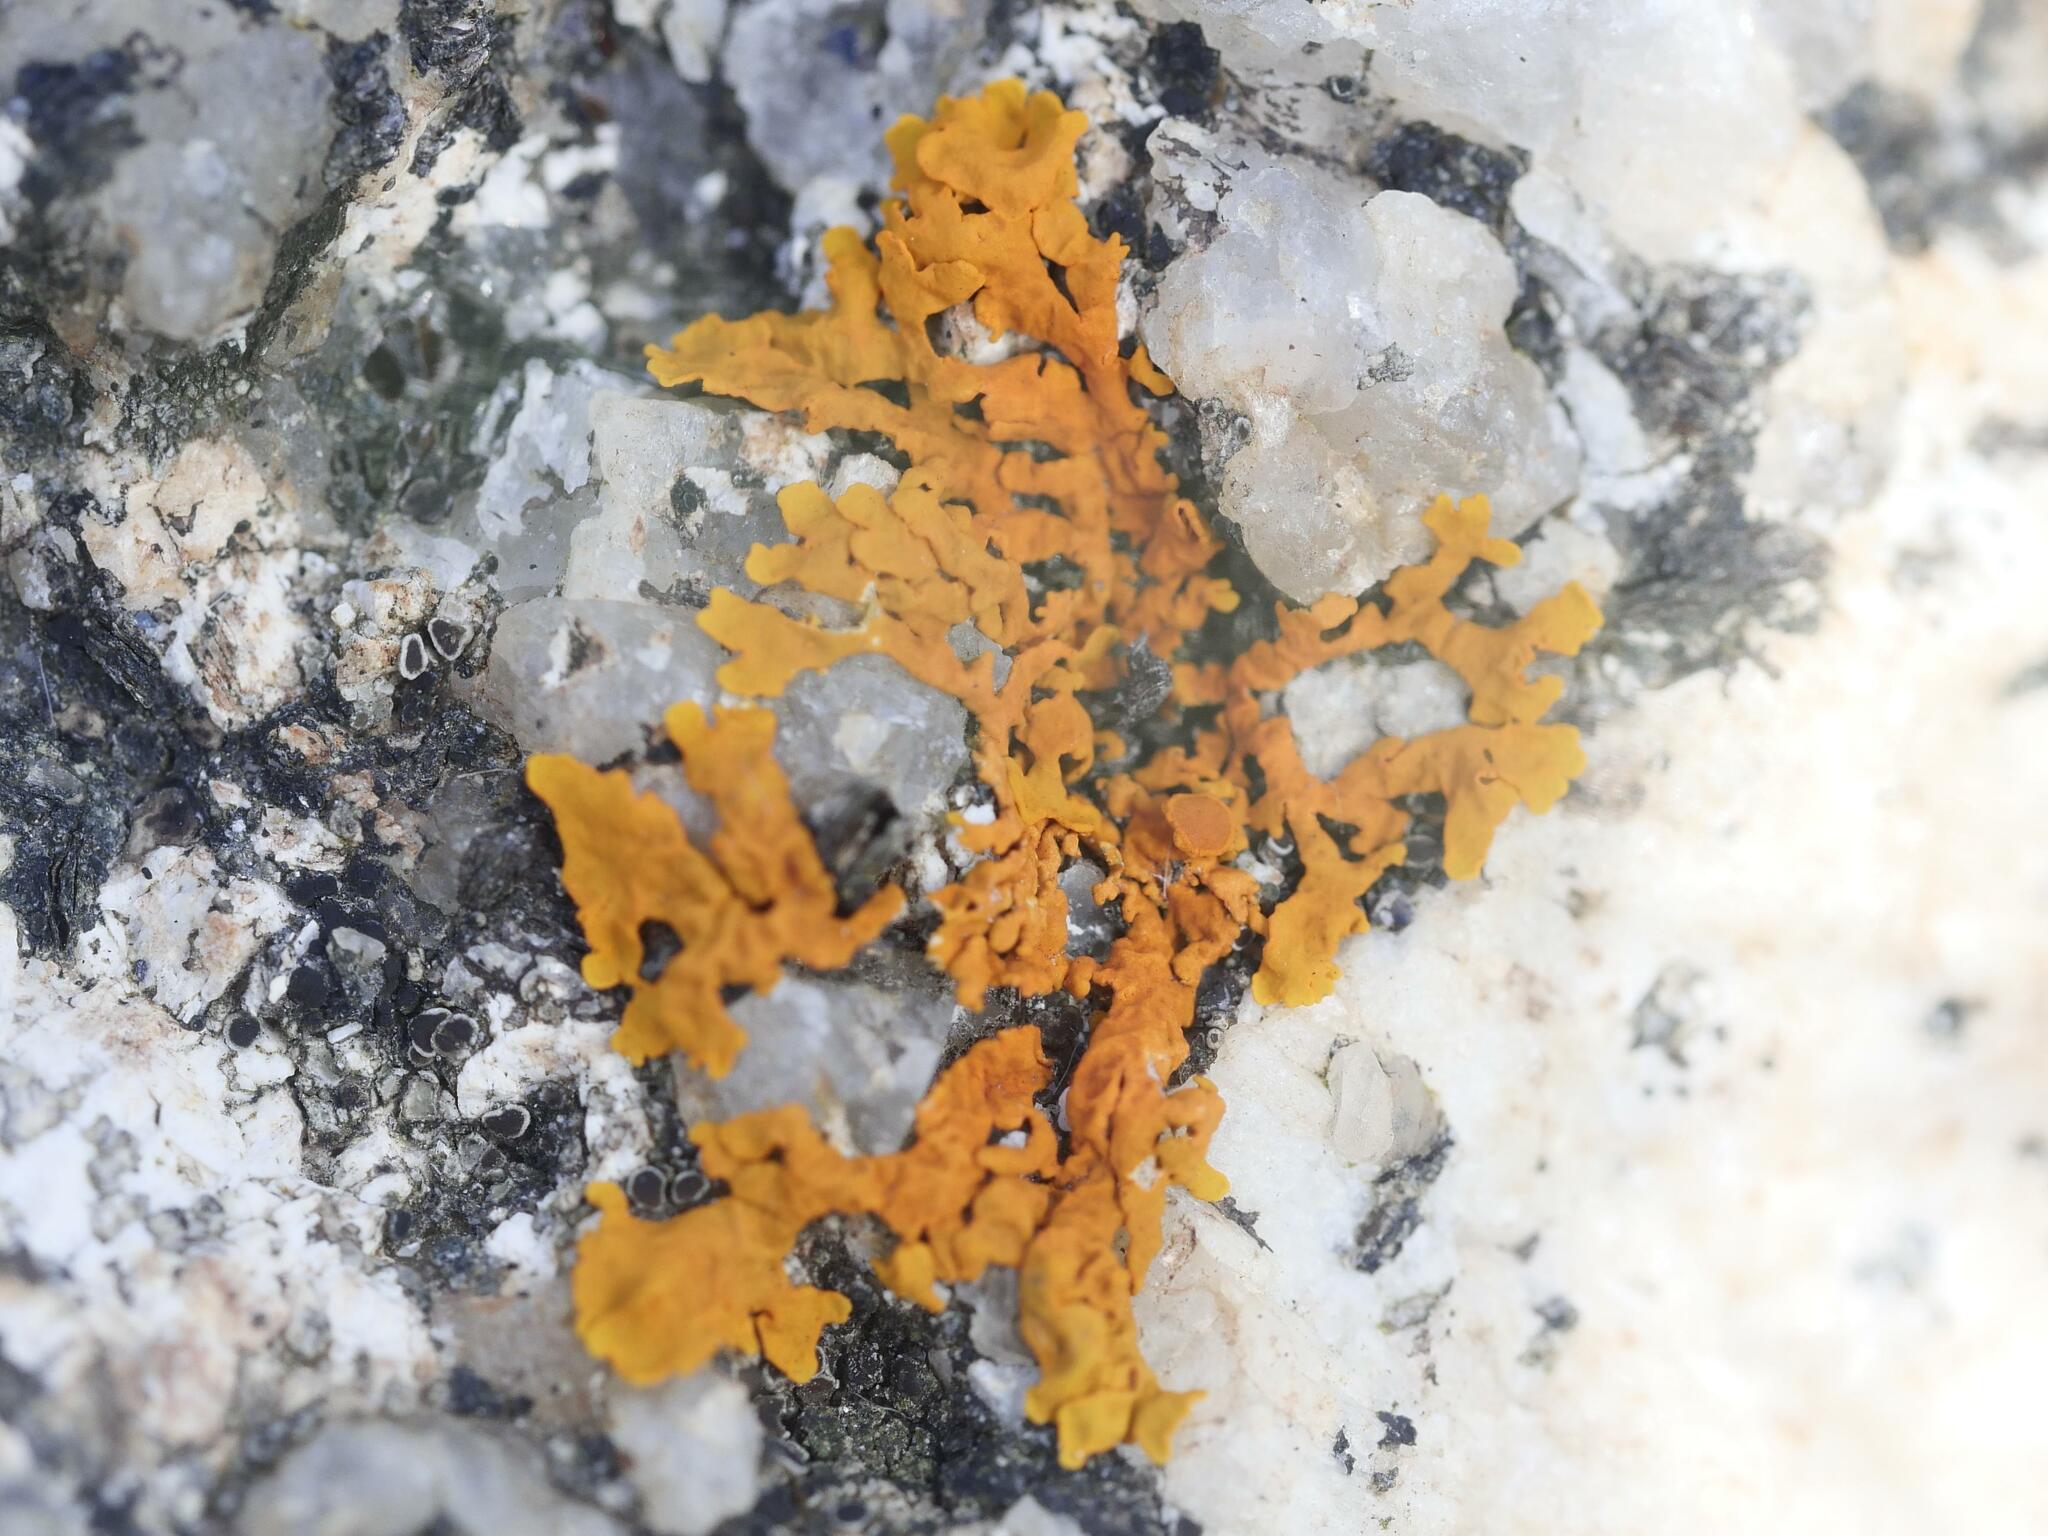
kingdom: Fungi
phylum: Ascomycota
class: Lecanoromycetes
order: Teloschistales
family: Teloschistaceae
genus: Xanthoria
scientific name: Xanthoria parietina
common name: Common orange lichen
